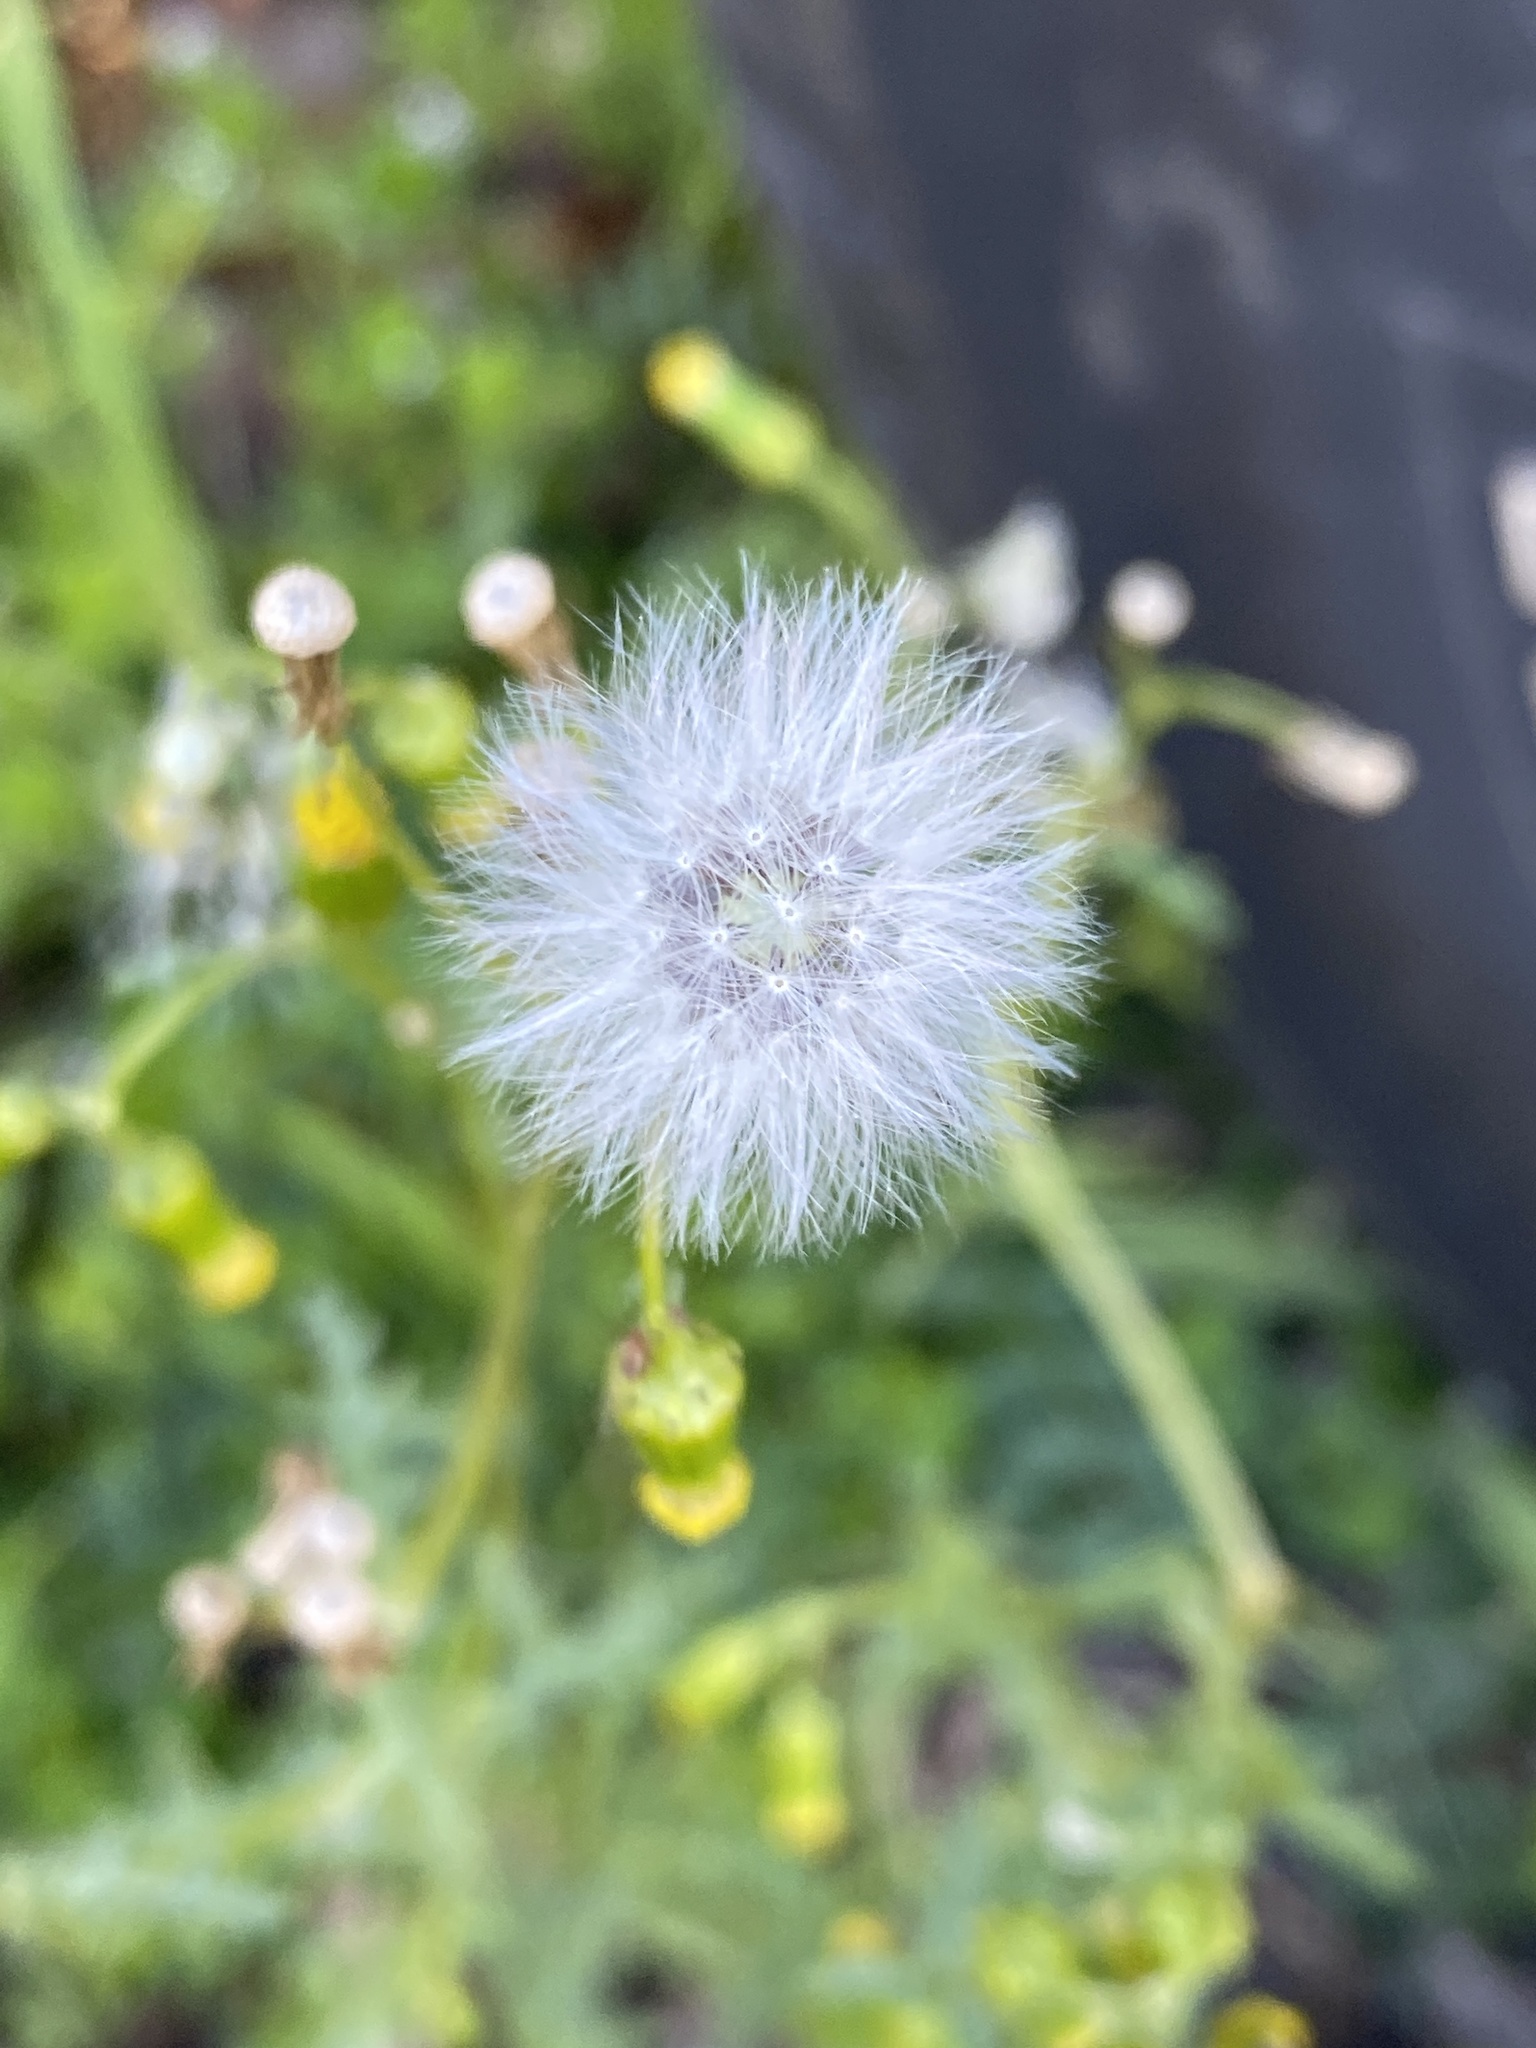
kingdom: Plantae
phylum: Tracheophyta
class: Magnoliopsida
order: Asterales
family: Asteraceae
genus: Senecio
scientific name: Senecio vulgaris
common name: Old-man-in-the-spring
